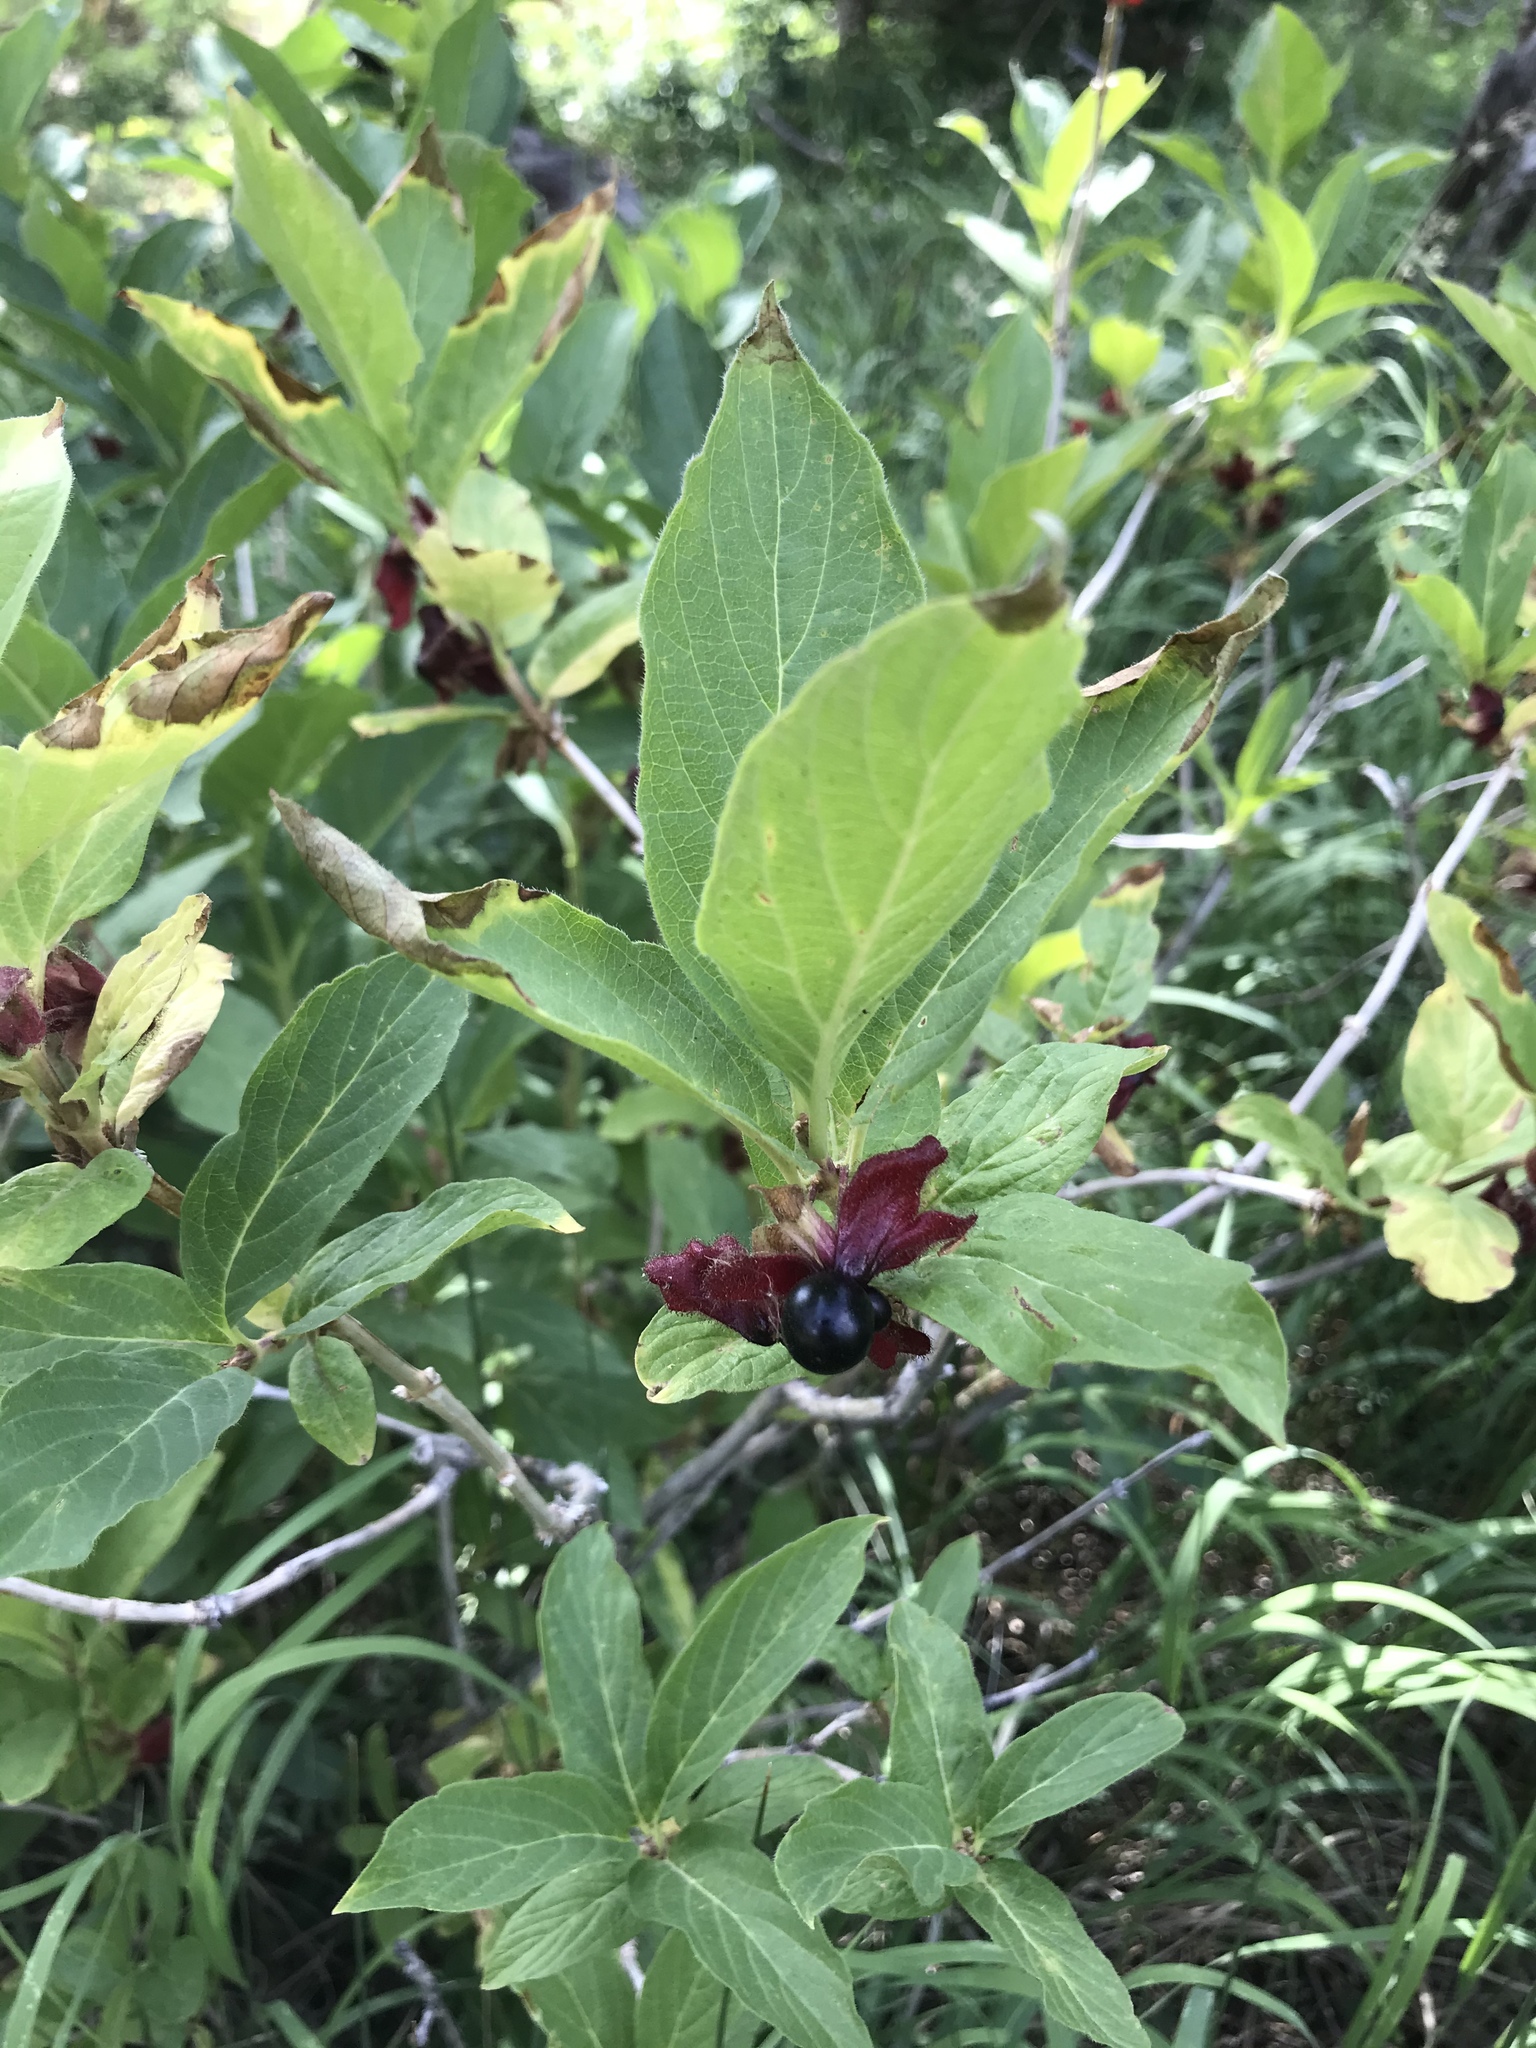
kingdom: Plantae
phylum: Tracheophyta
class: Magnoliopsida
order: Dipsacales
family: Caprifoliaceae
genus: Lonicera
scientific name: Lonicera involucrata
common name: Californian honeysuckle
